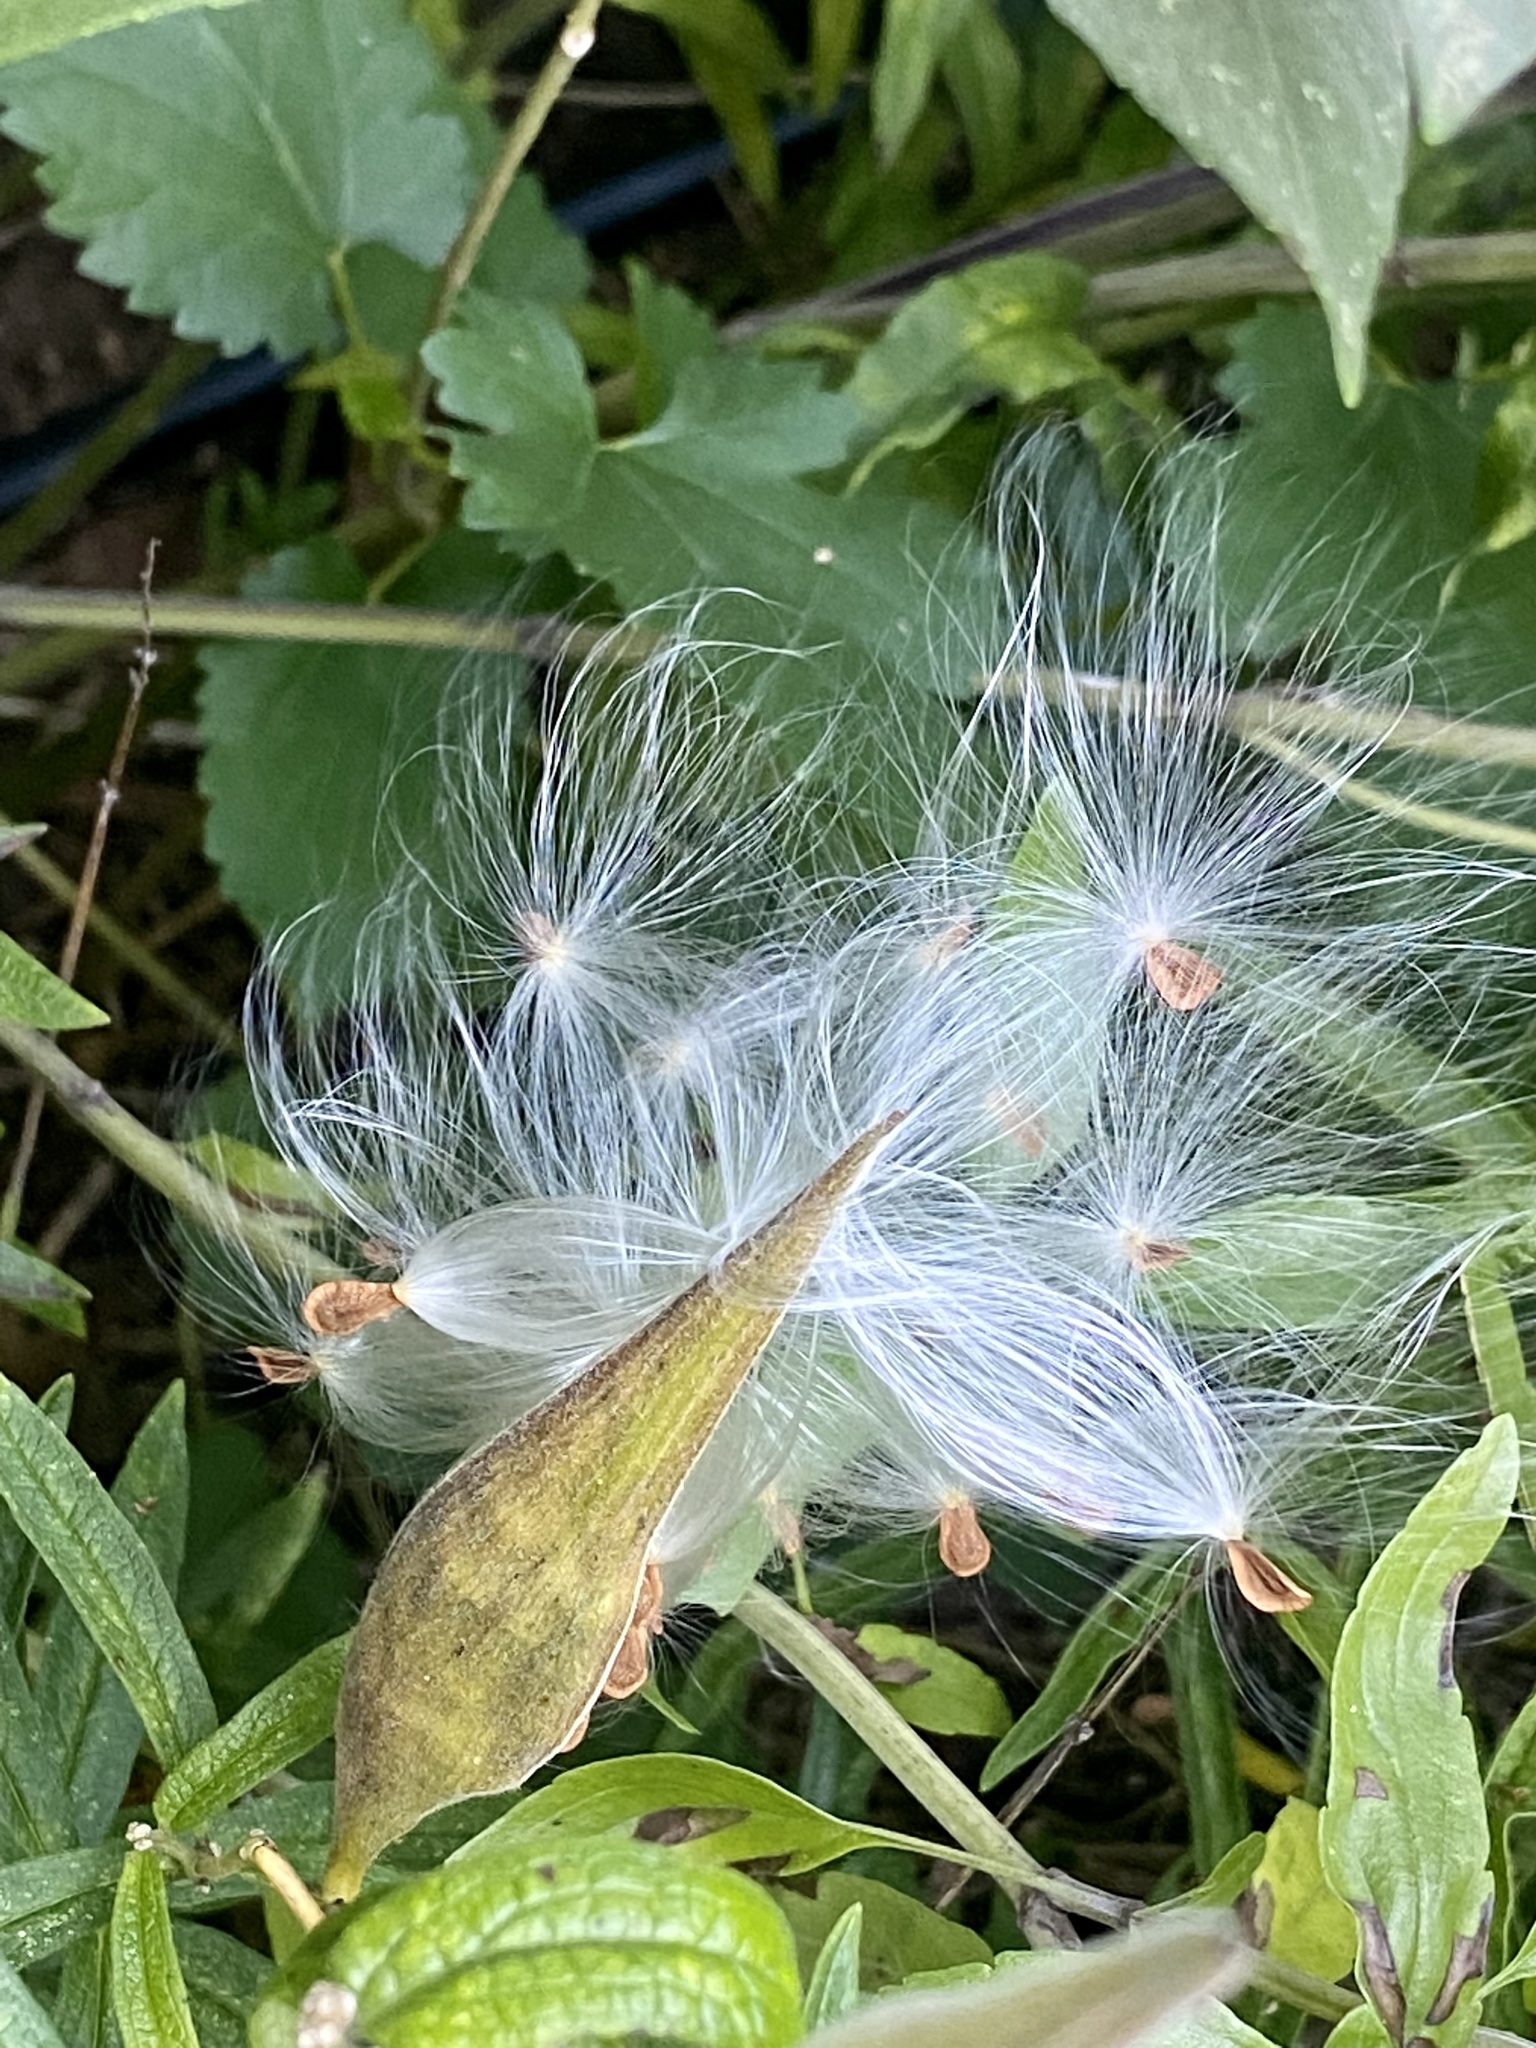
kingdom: Plantae
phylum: Tracheophyta
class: Magnoliopsida
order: Gentianales
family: Apocynaceae
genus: Asclepias
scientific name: Asclepias tuberosa
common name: Butterfly milkweed
